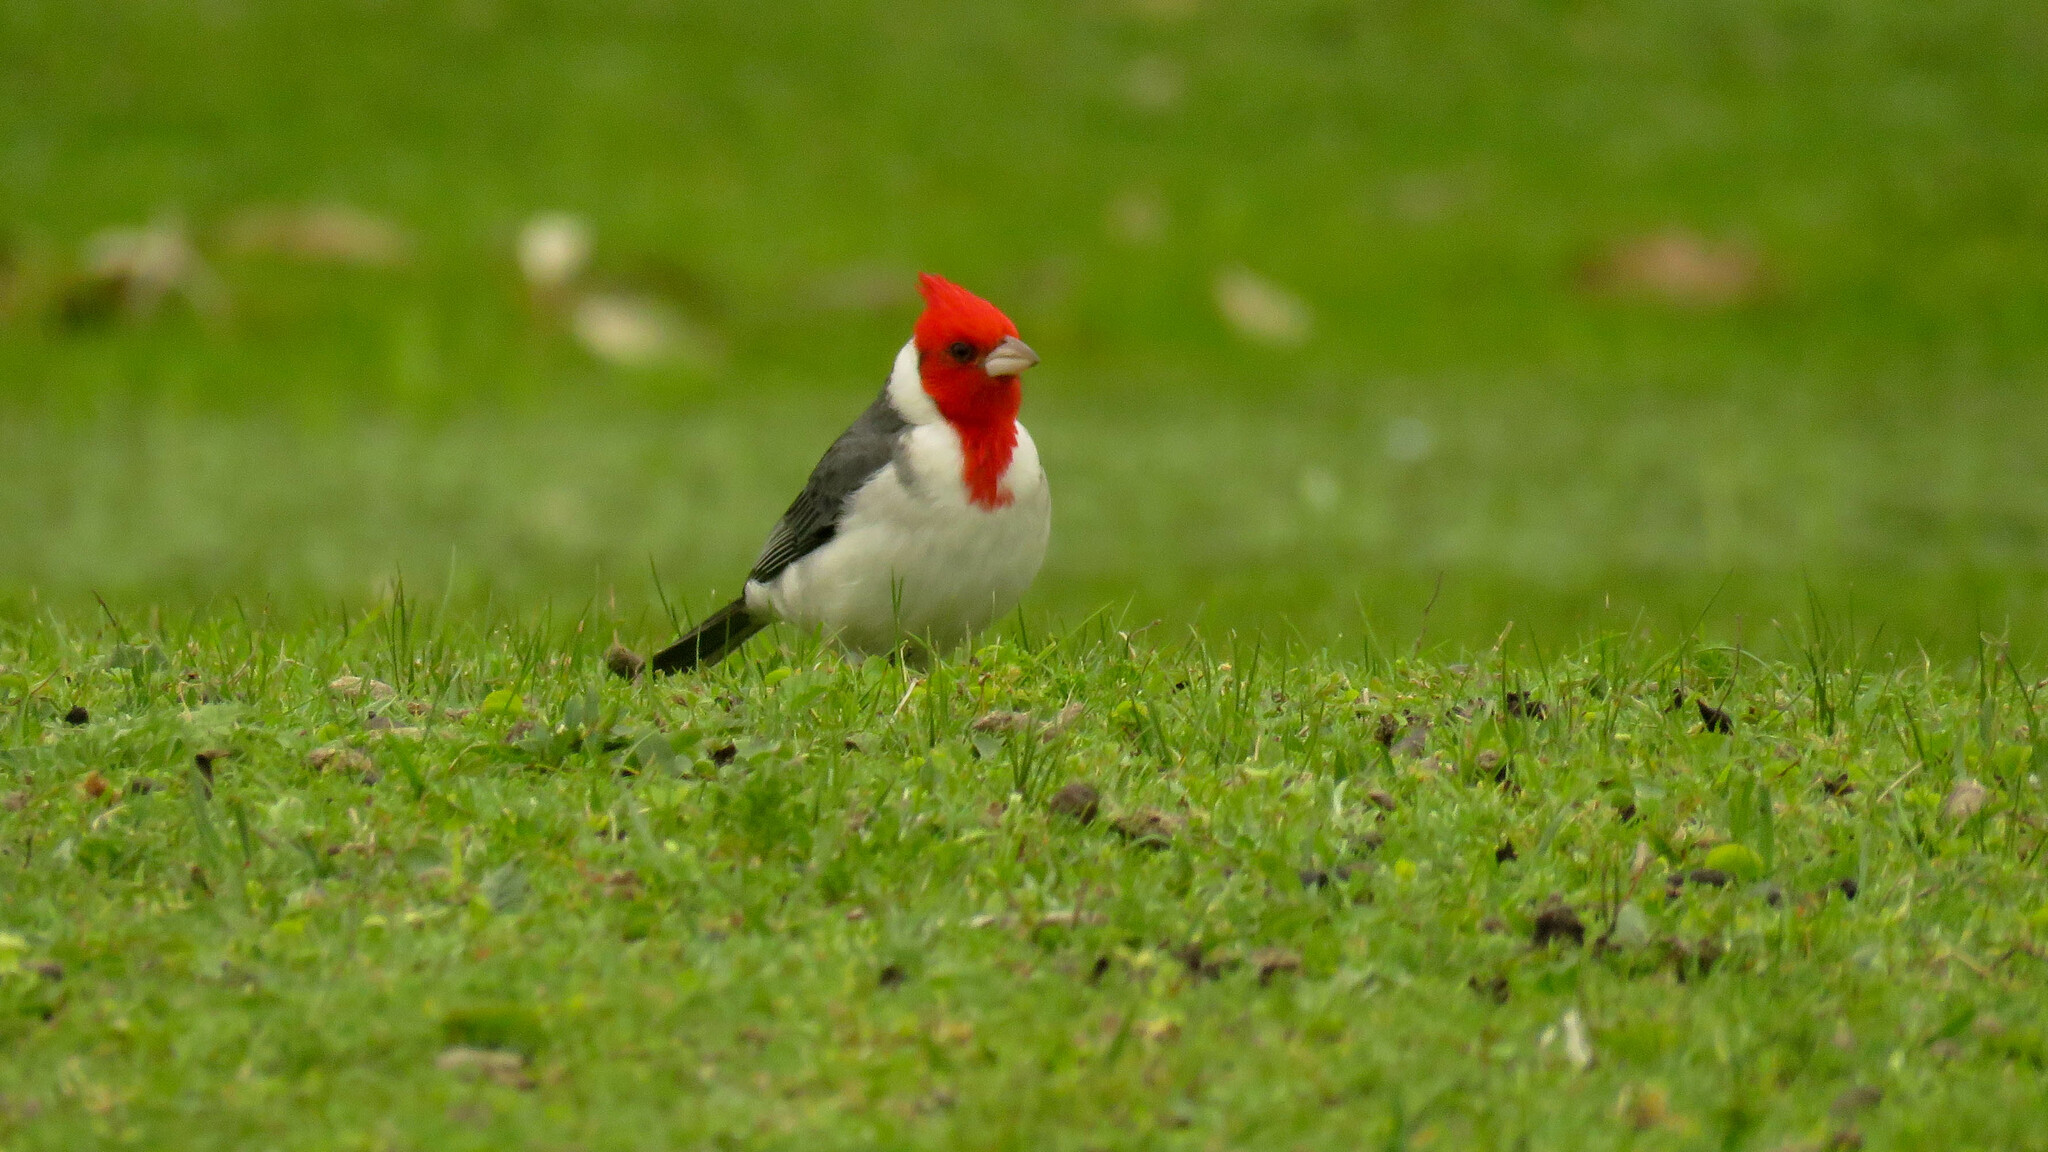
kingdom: Animalia
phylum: Chordata
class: Aves
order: Passeriformes
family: Thraupidae
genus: Paroaria
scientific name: Paroaria coronata
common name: Red-crested cardinal
